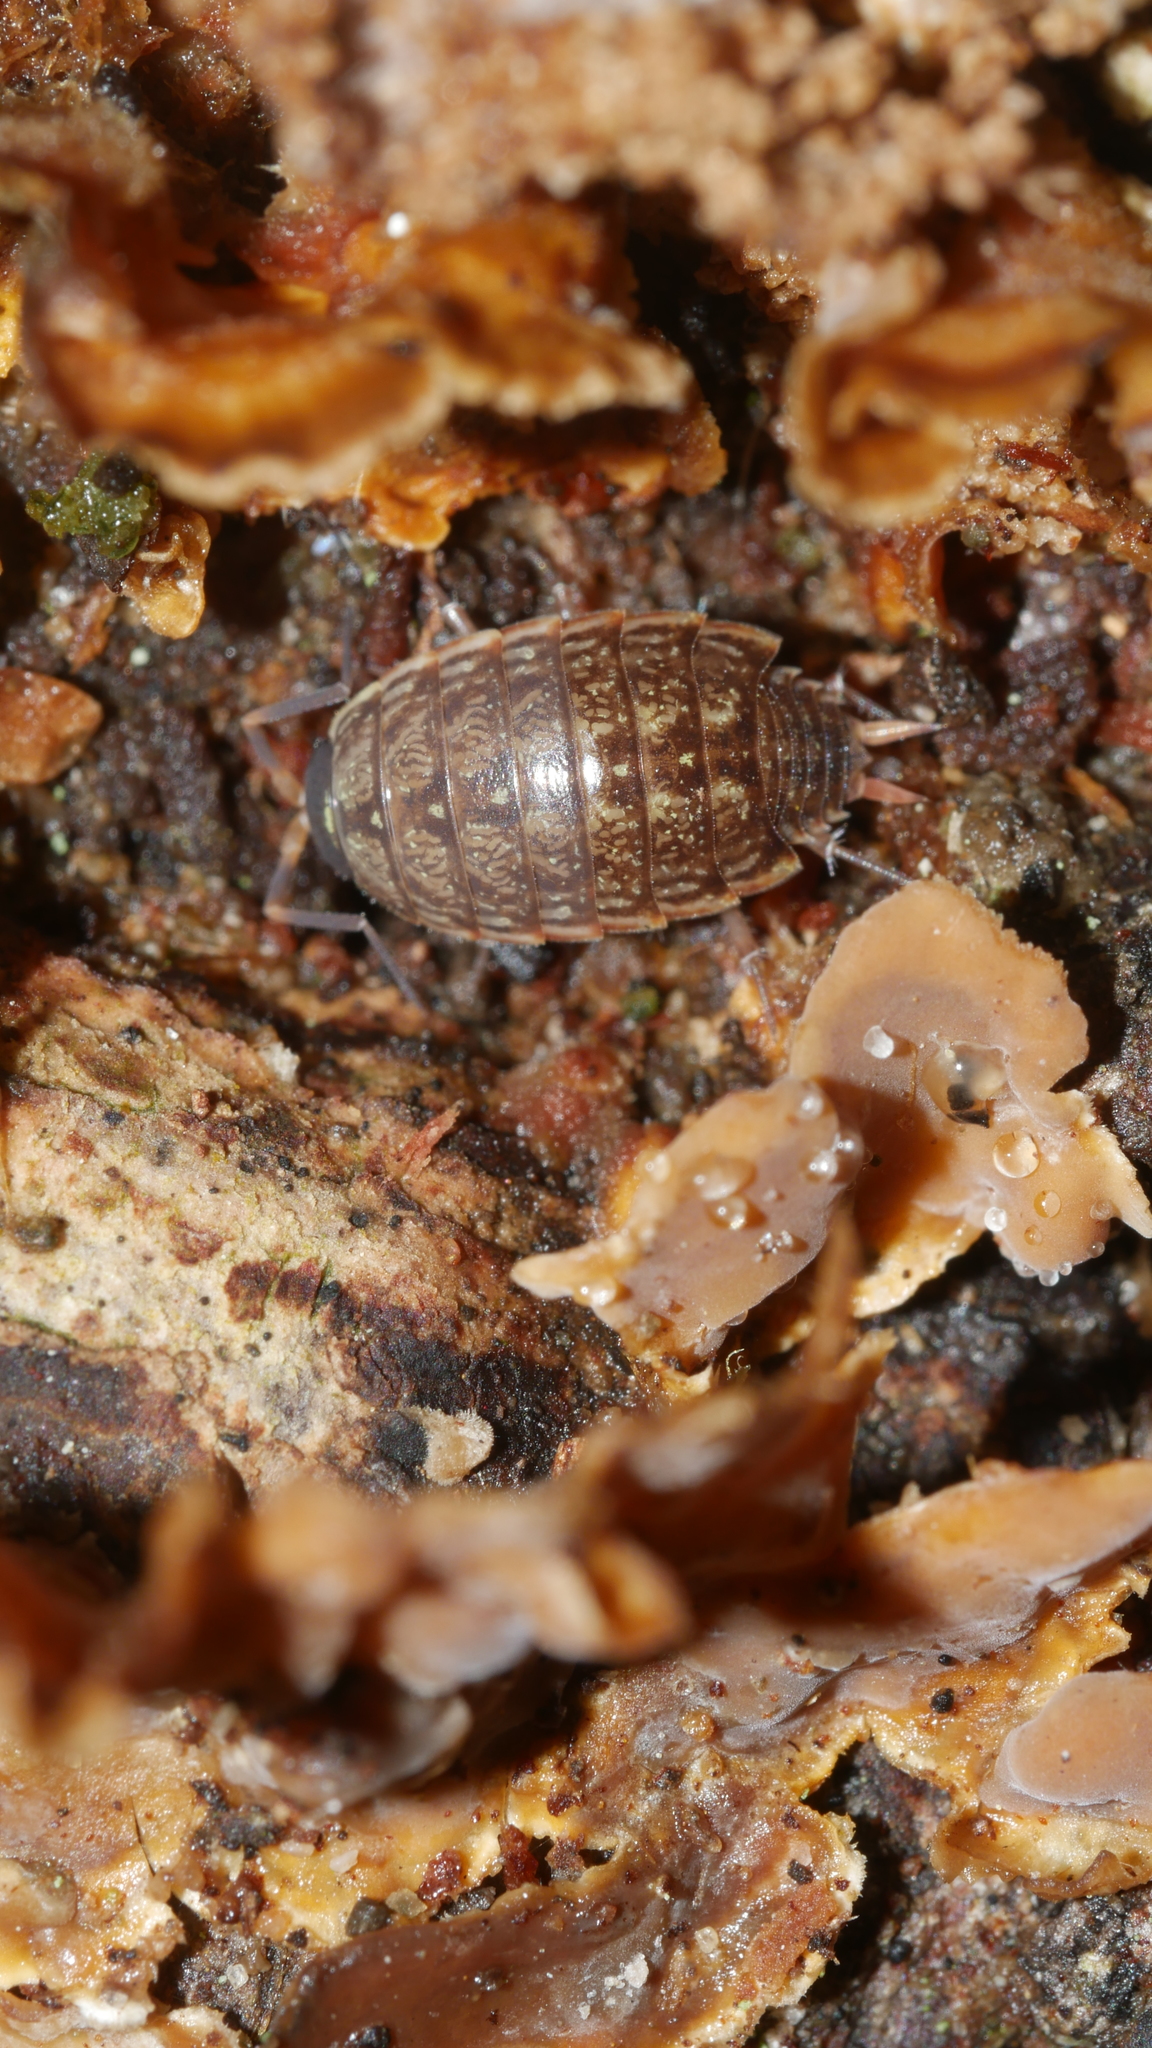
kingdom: Animalia
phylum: Arthropoda
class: Malacostraca
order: Isopoda
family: Philosciidae
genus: Philoscia
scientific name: Philoscia muscorum
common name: Common striped woodlouse
